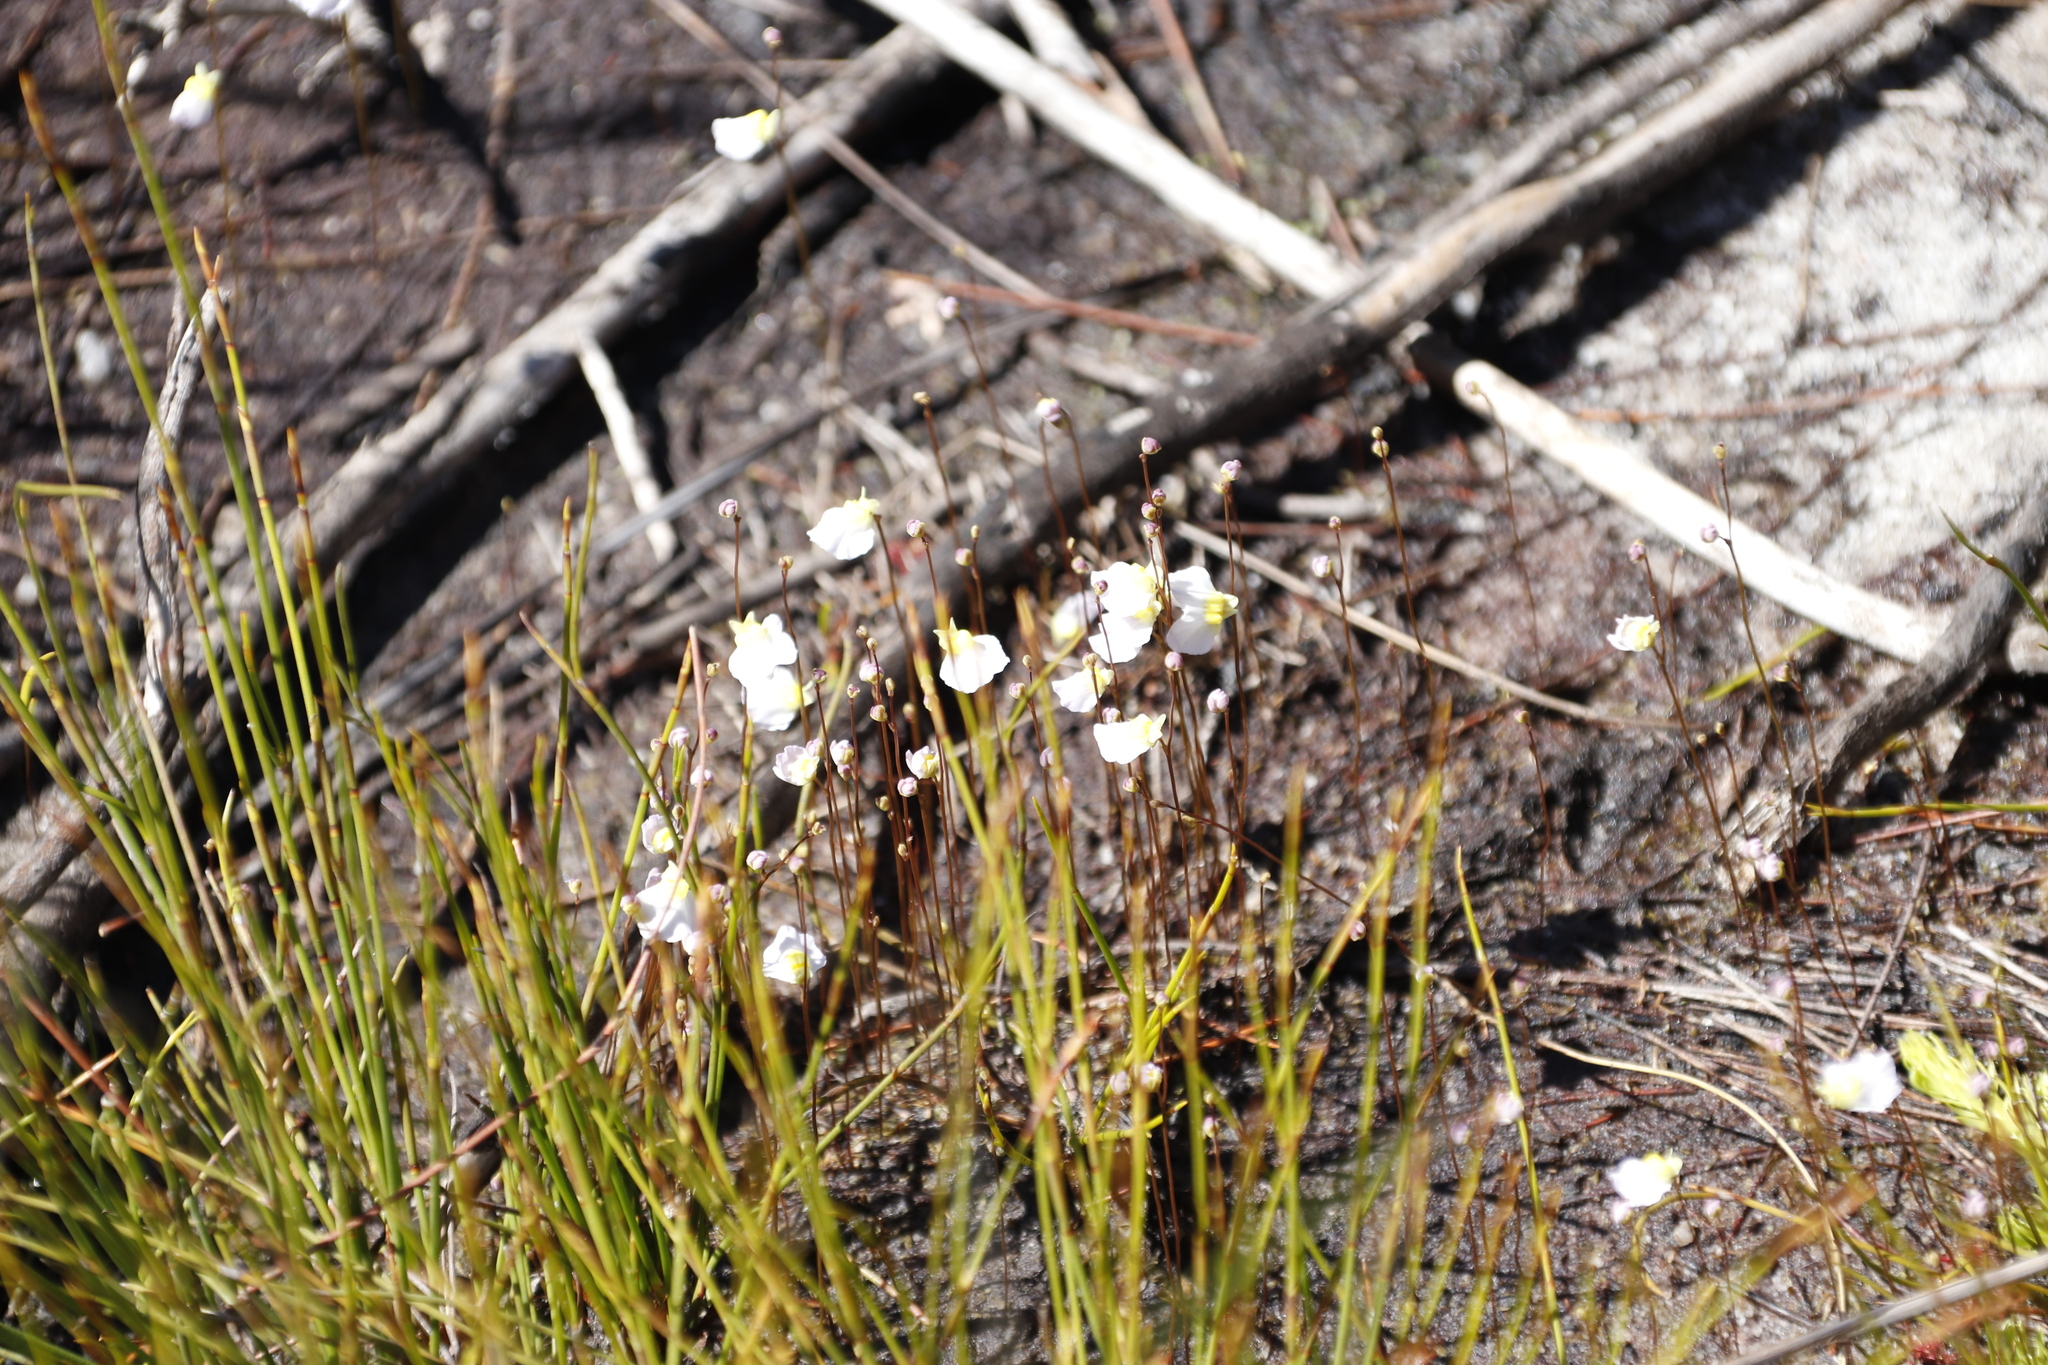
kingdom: Plantae
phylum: Tracheophyta
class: Magnoliopsida
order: Lamiales
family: Lentibulariaceae
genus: Utricularia
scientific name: Utricularia bisquamata
